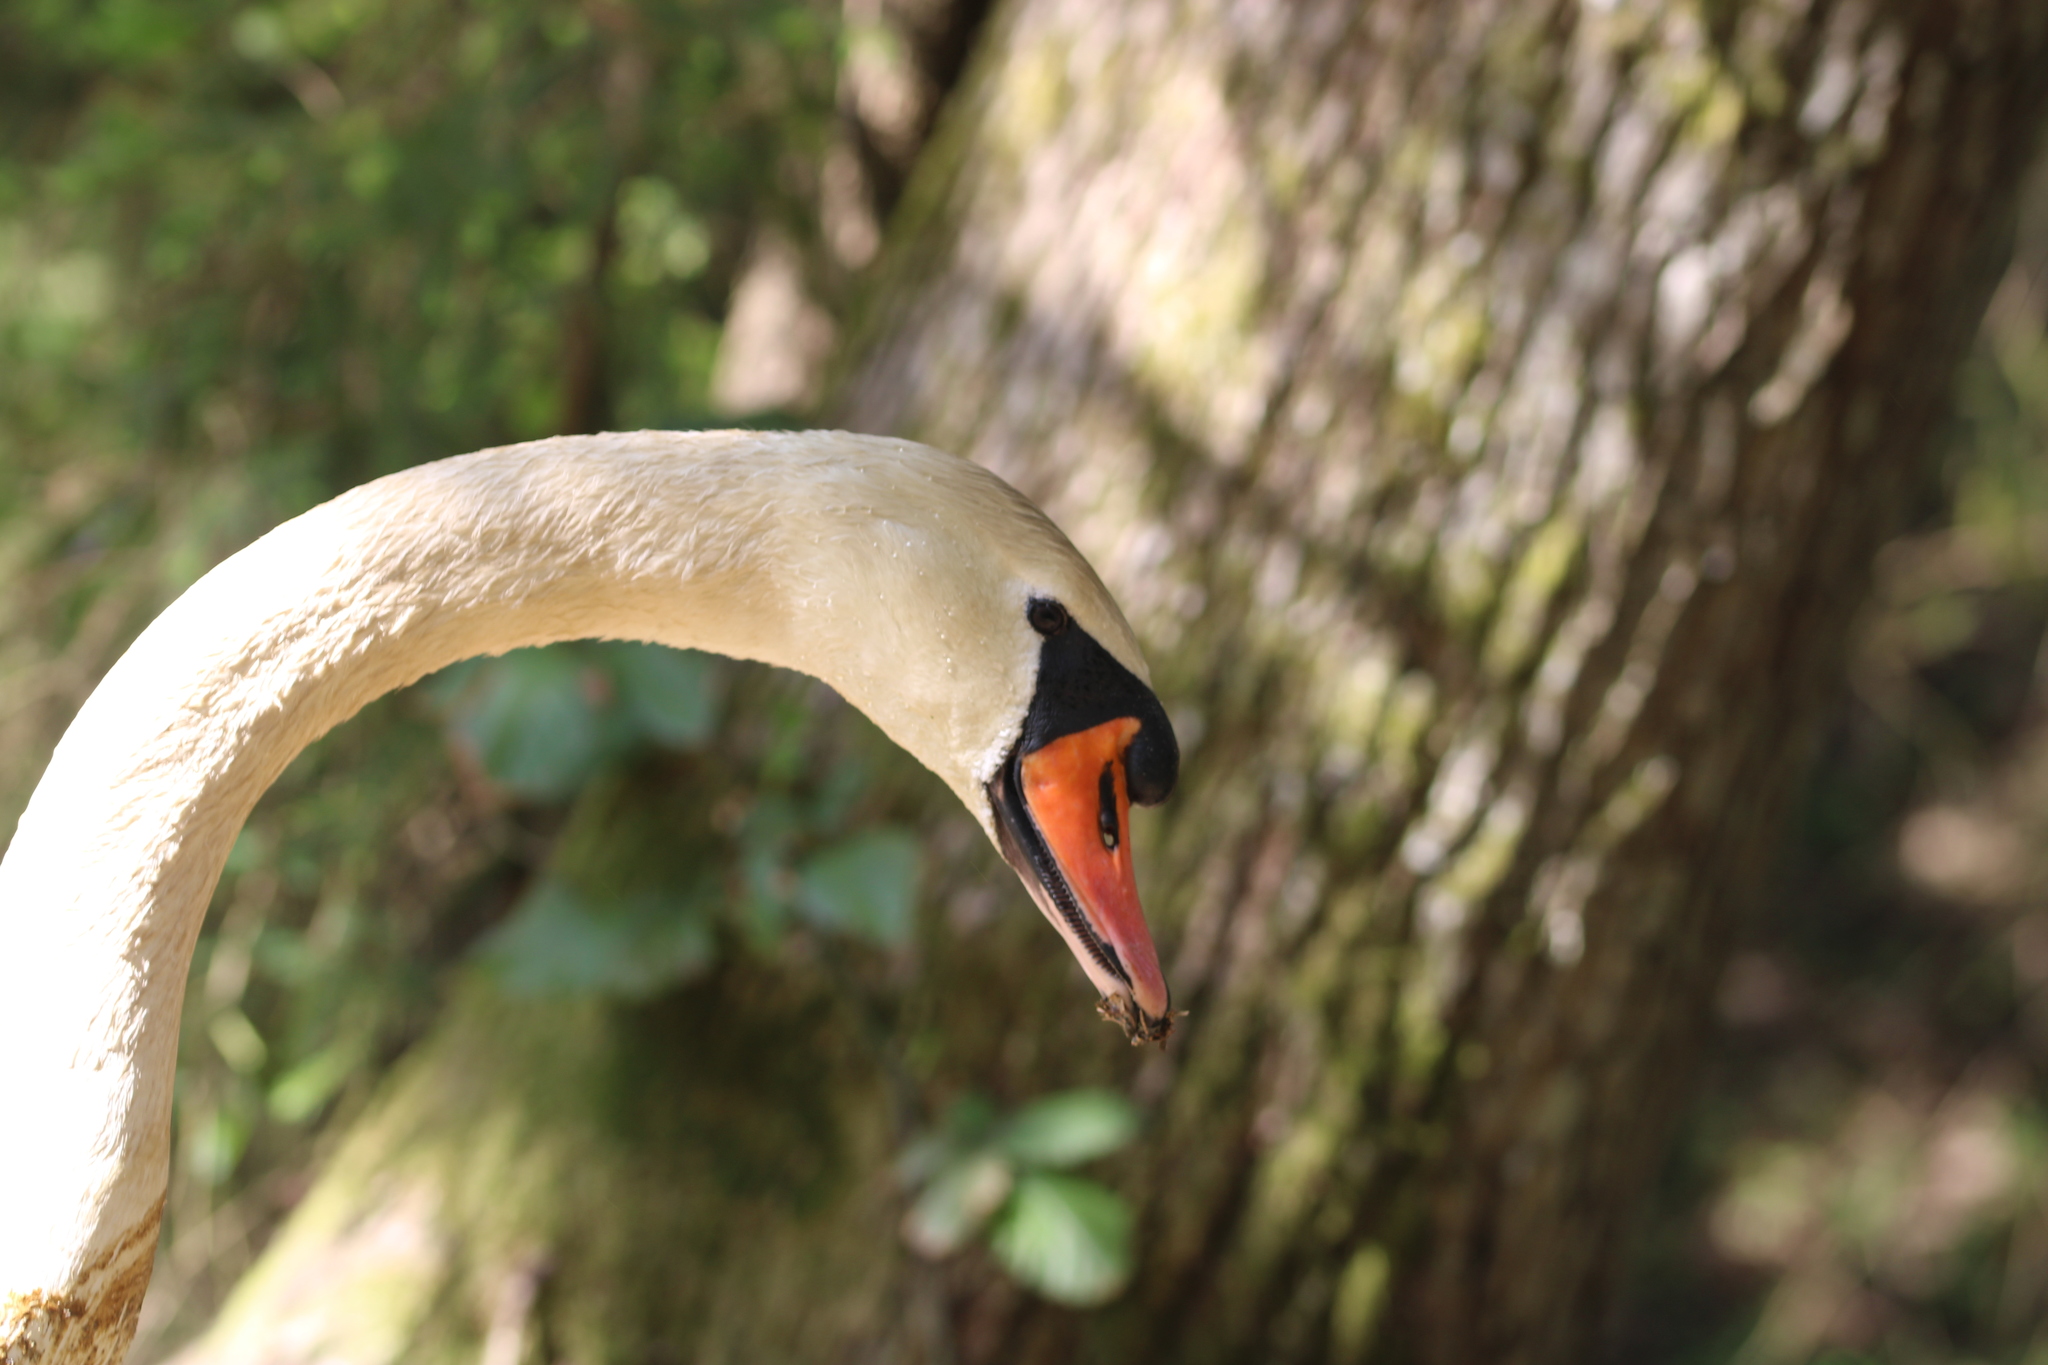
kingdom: Animalia
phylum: Chordata
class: Aves
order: Anseriformes
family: Anatidae
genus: Cygnus
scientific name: Cygnus olor
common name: Mute swan
